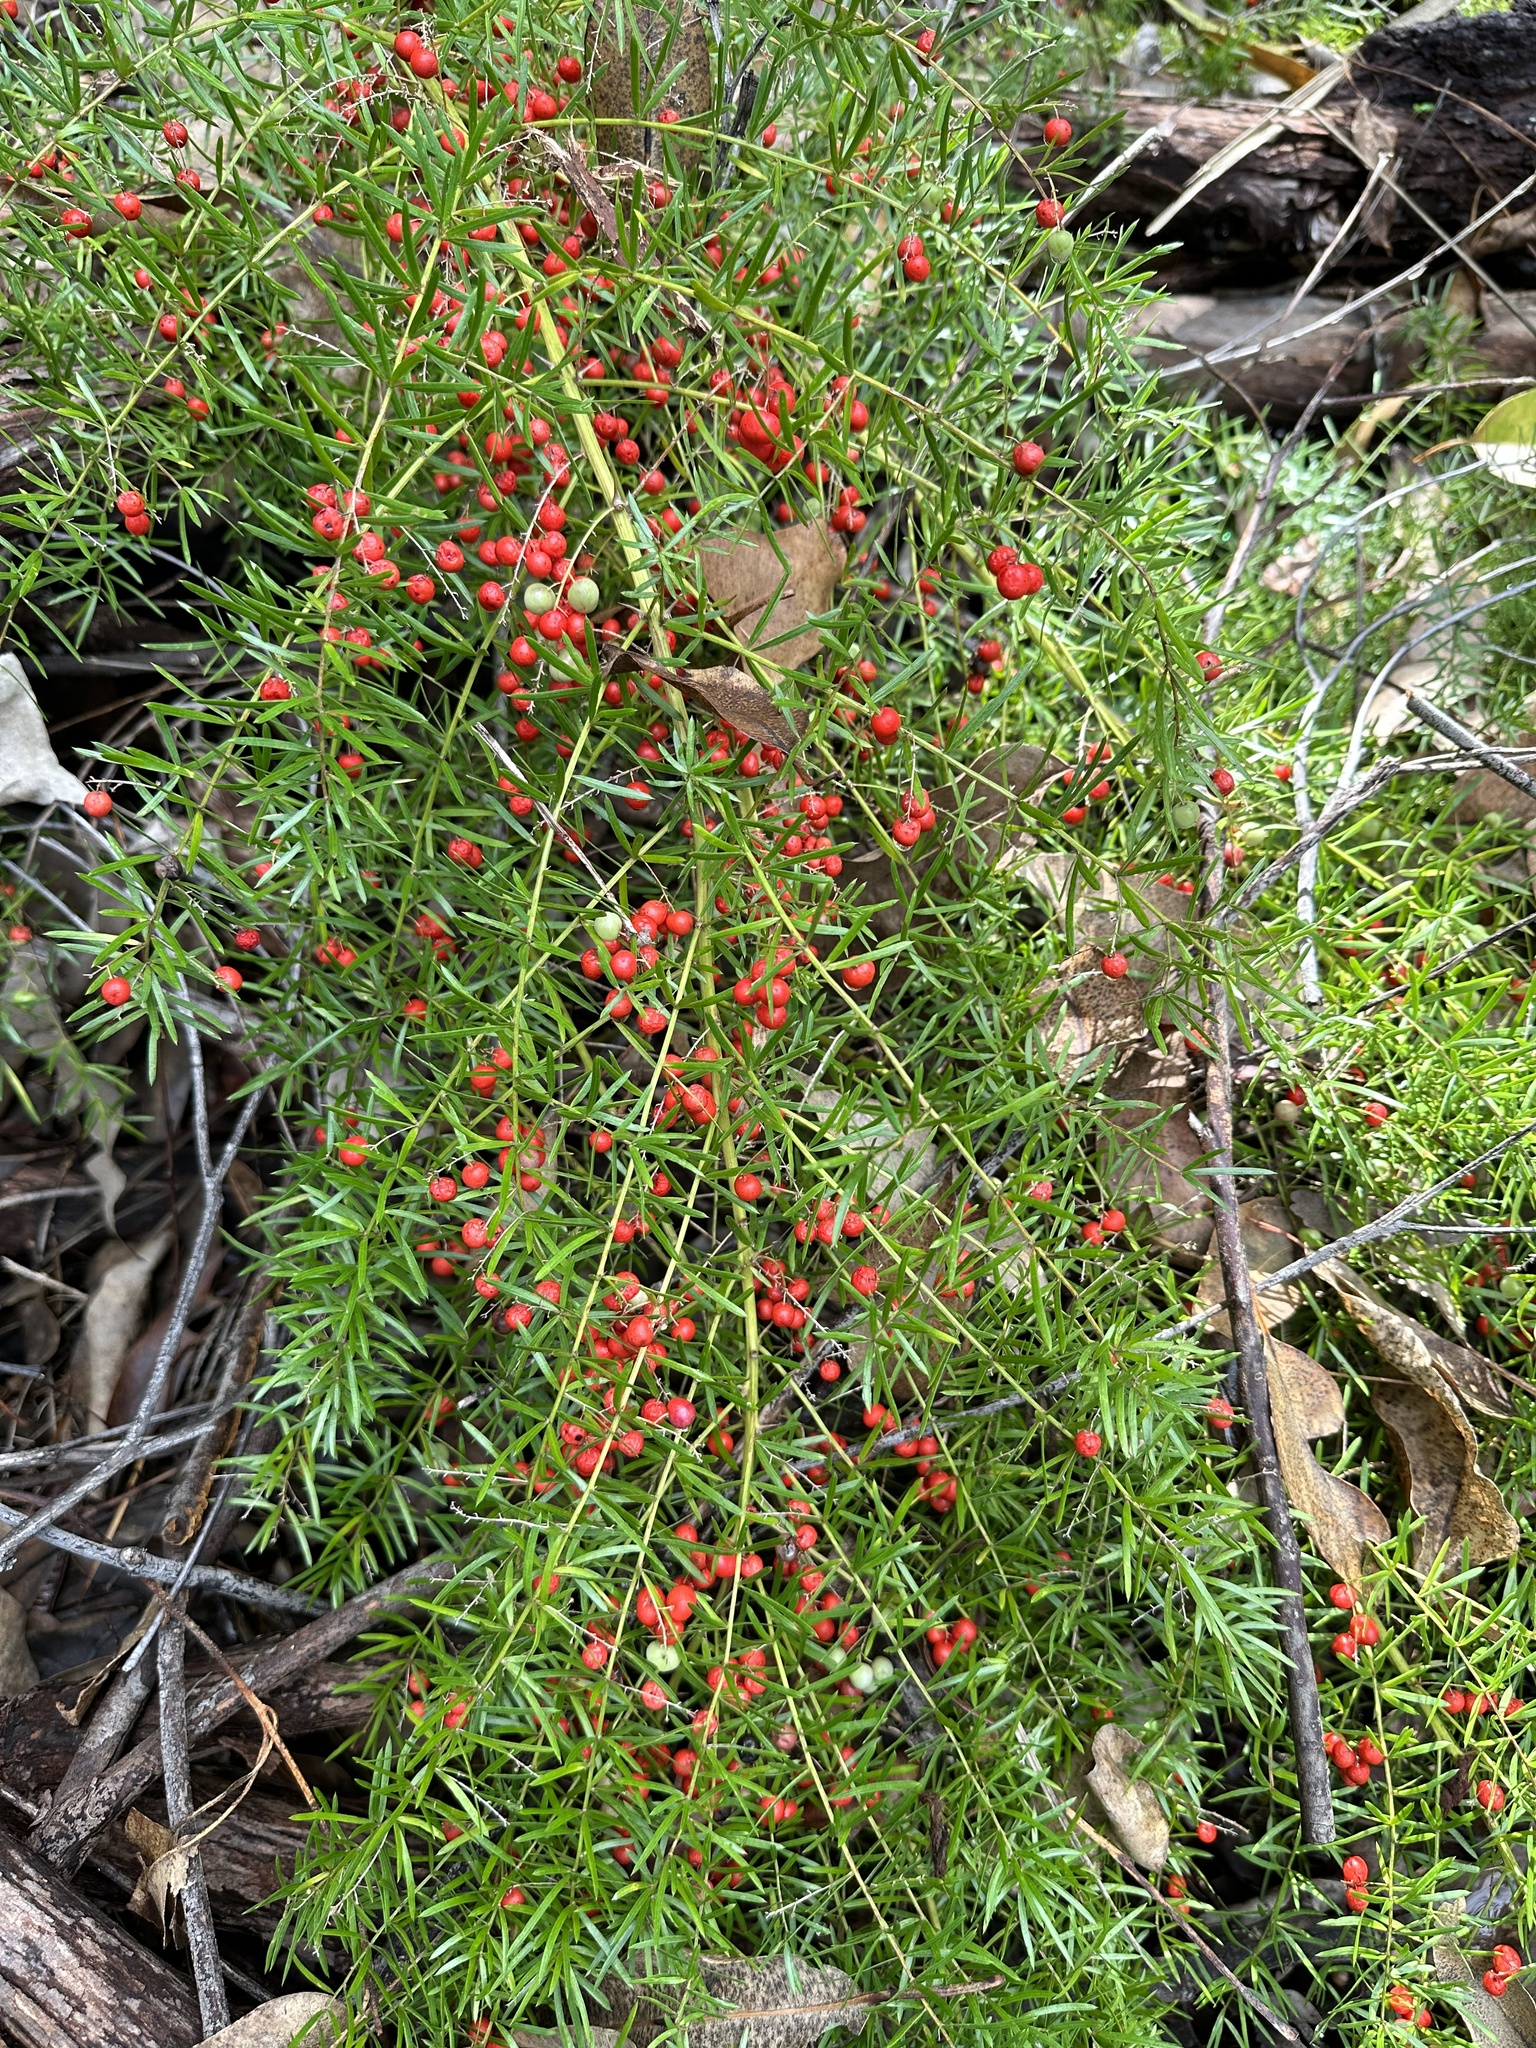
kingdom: Plantae
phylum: Tracheophyta
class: Liliopsida
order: Asparagales
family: Asparagaceae
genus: Asparagus
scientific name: Asparagus aethiopicus
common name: Sprenger's asparagus fern
